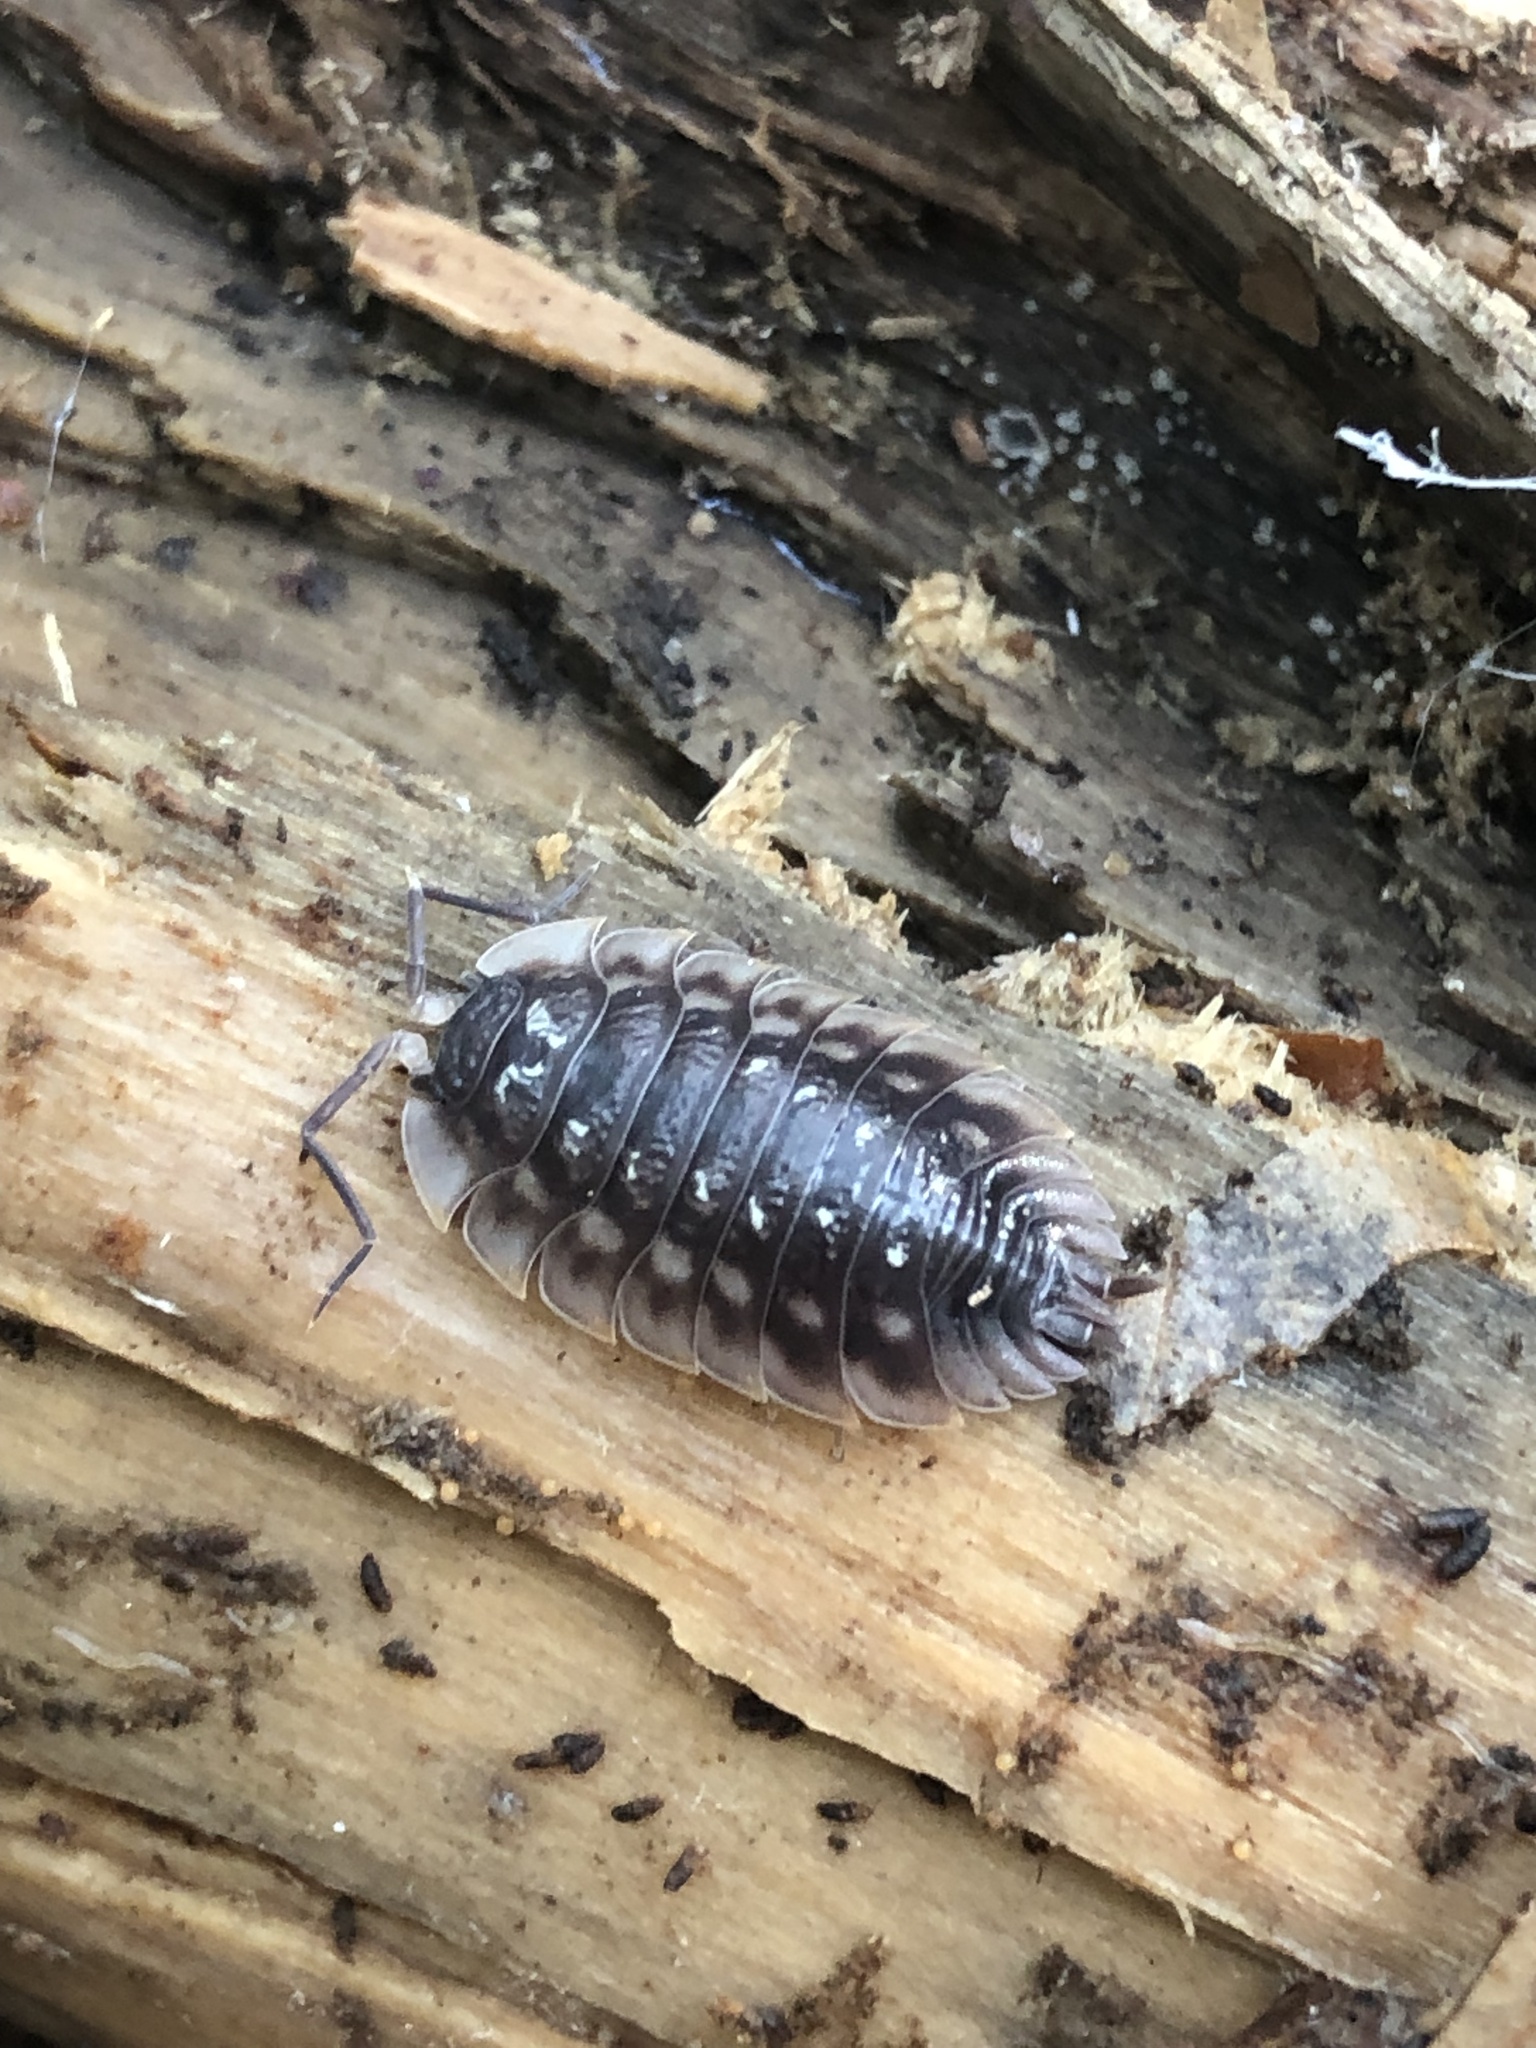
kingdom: Animalia
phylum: Arthropoda
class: Malacostraca
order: Isopoda
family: Oniscidae
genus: Oniscus
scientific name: Oniscus asellus
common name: Common shiny woodlouse
